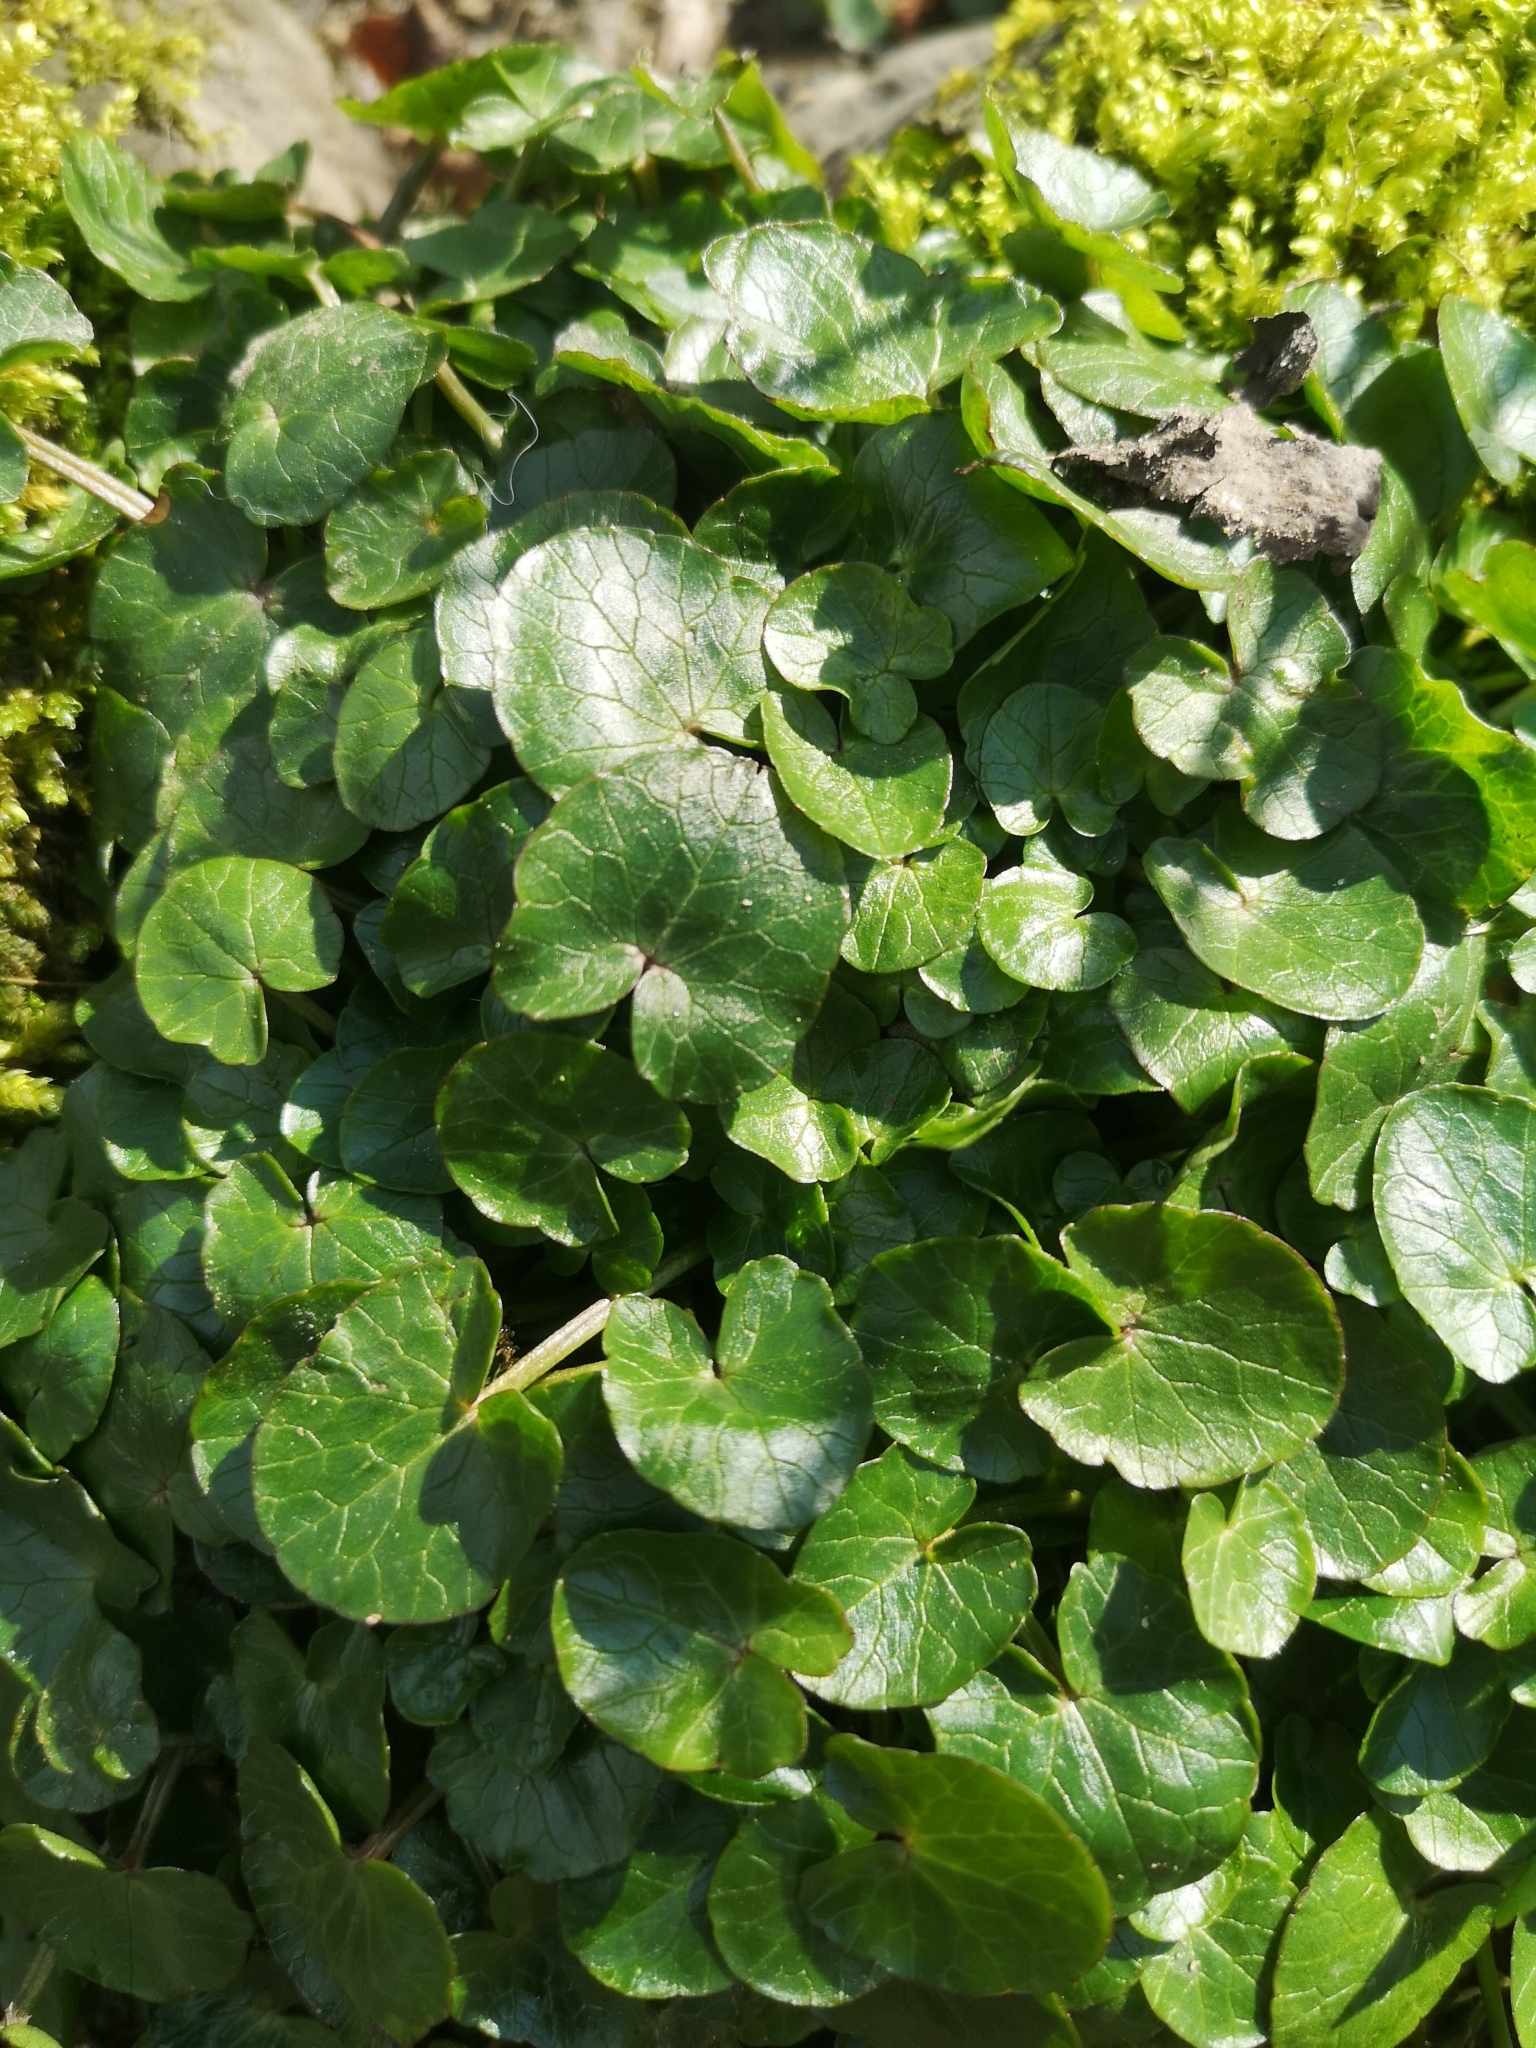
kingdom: Plantae
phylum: Tracheophyta
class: Magnoliopsida
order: Ranunculales
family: Ranunculaceae
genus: Ficaria
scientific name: Ficaria verna
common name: Lesser celandine
